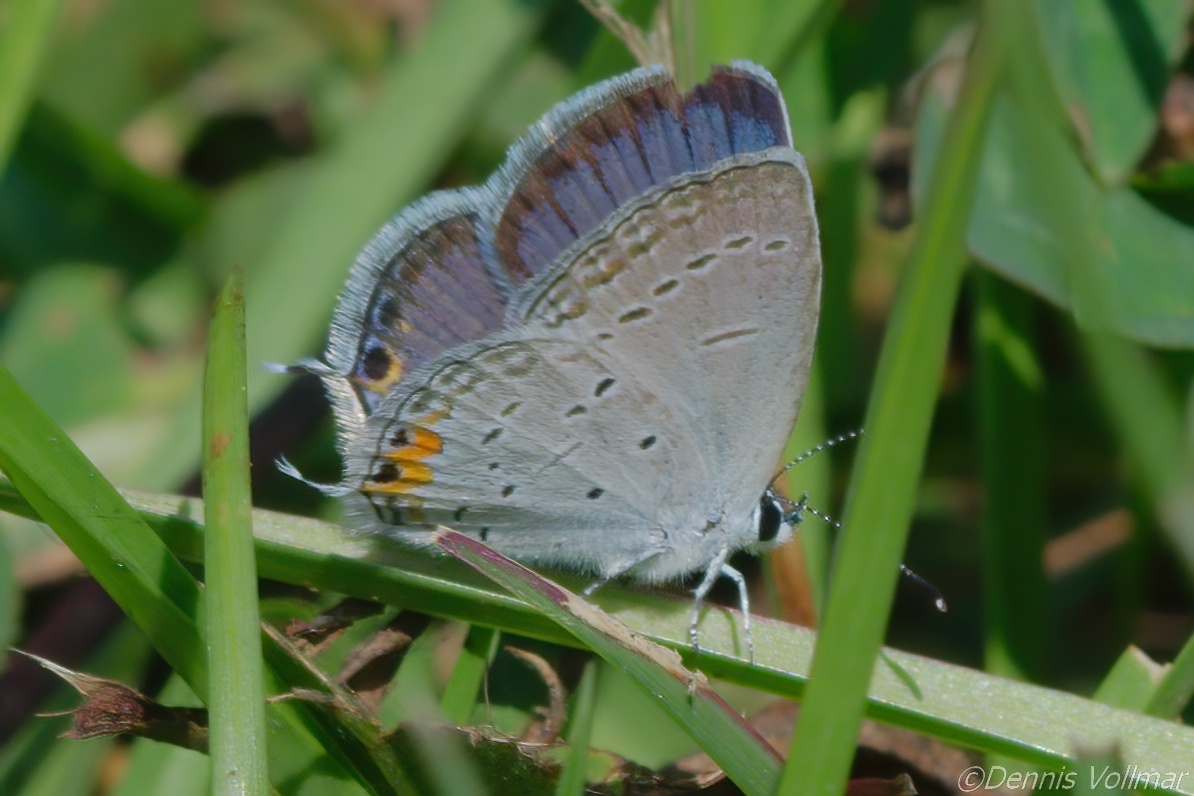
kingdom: Animalia
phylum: Arthropoda
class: Insecta
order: Lepidoptera
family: Lycaenidae
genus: Elkalyce
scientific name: Elkalyce comyntas
